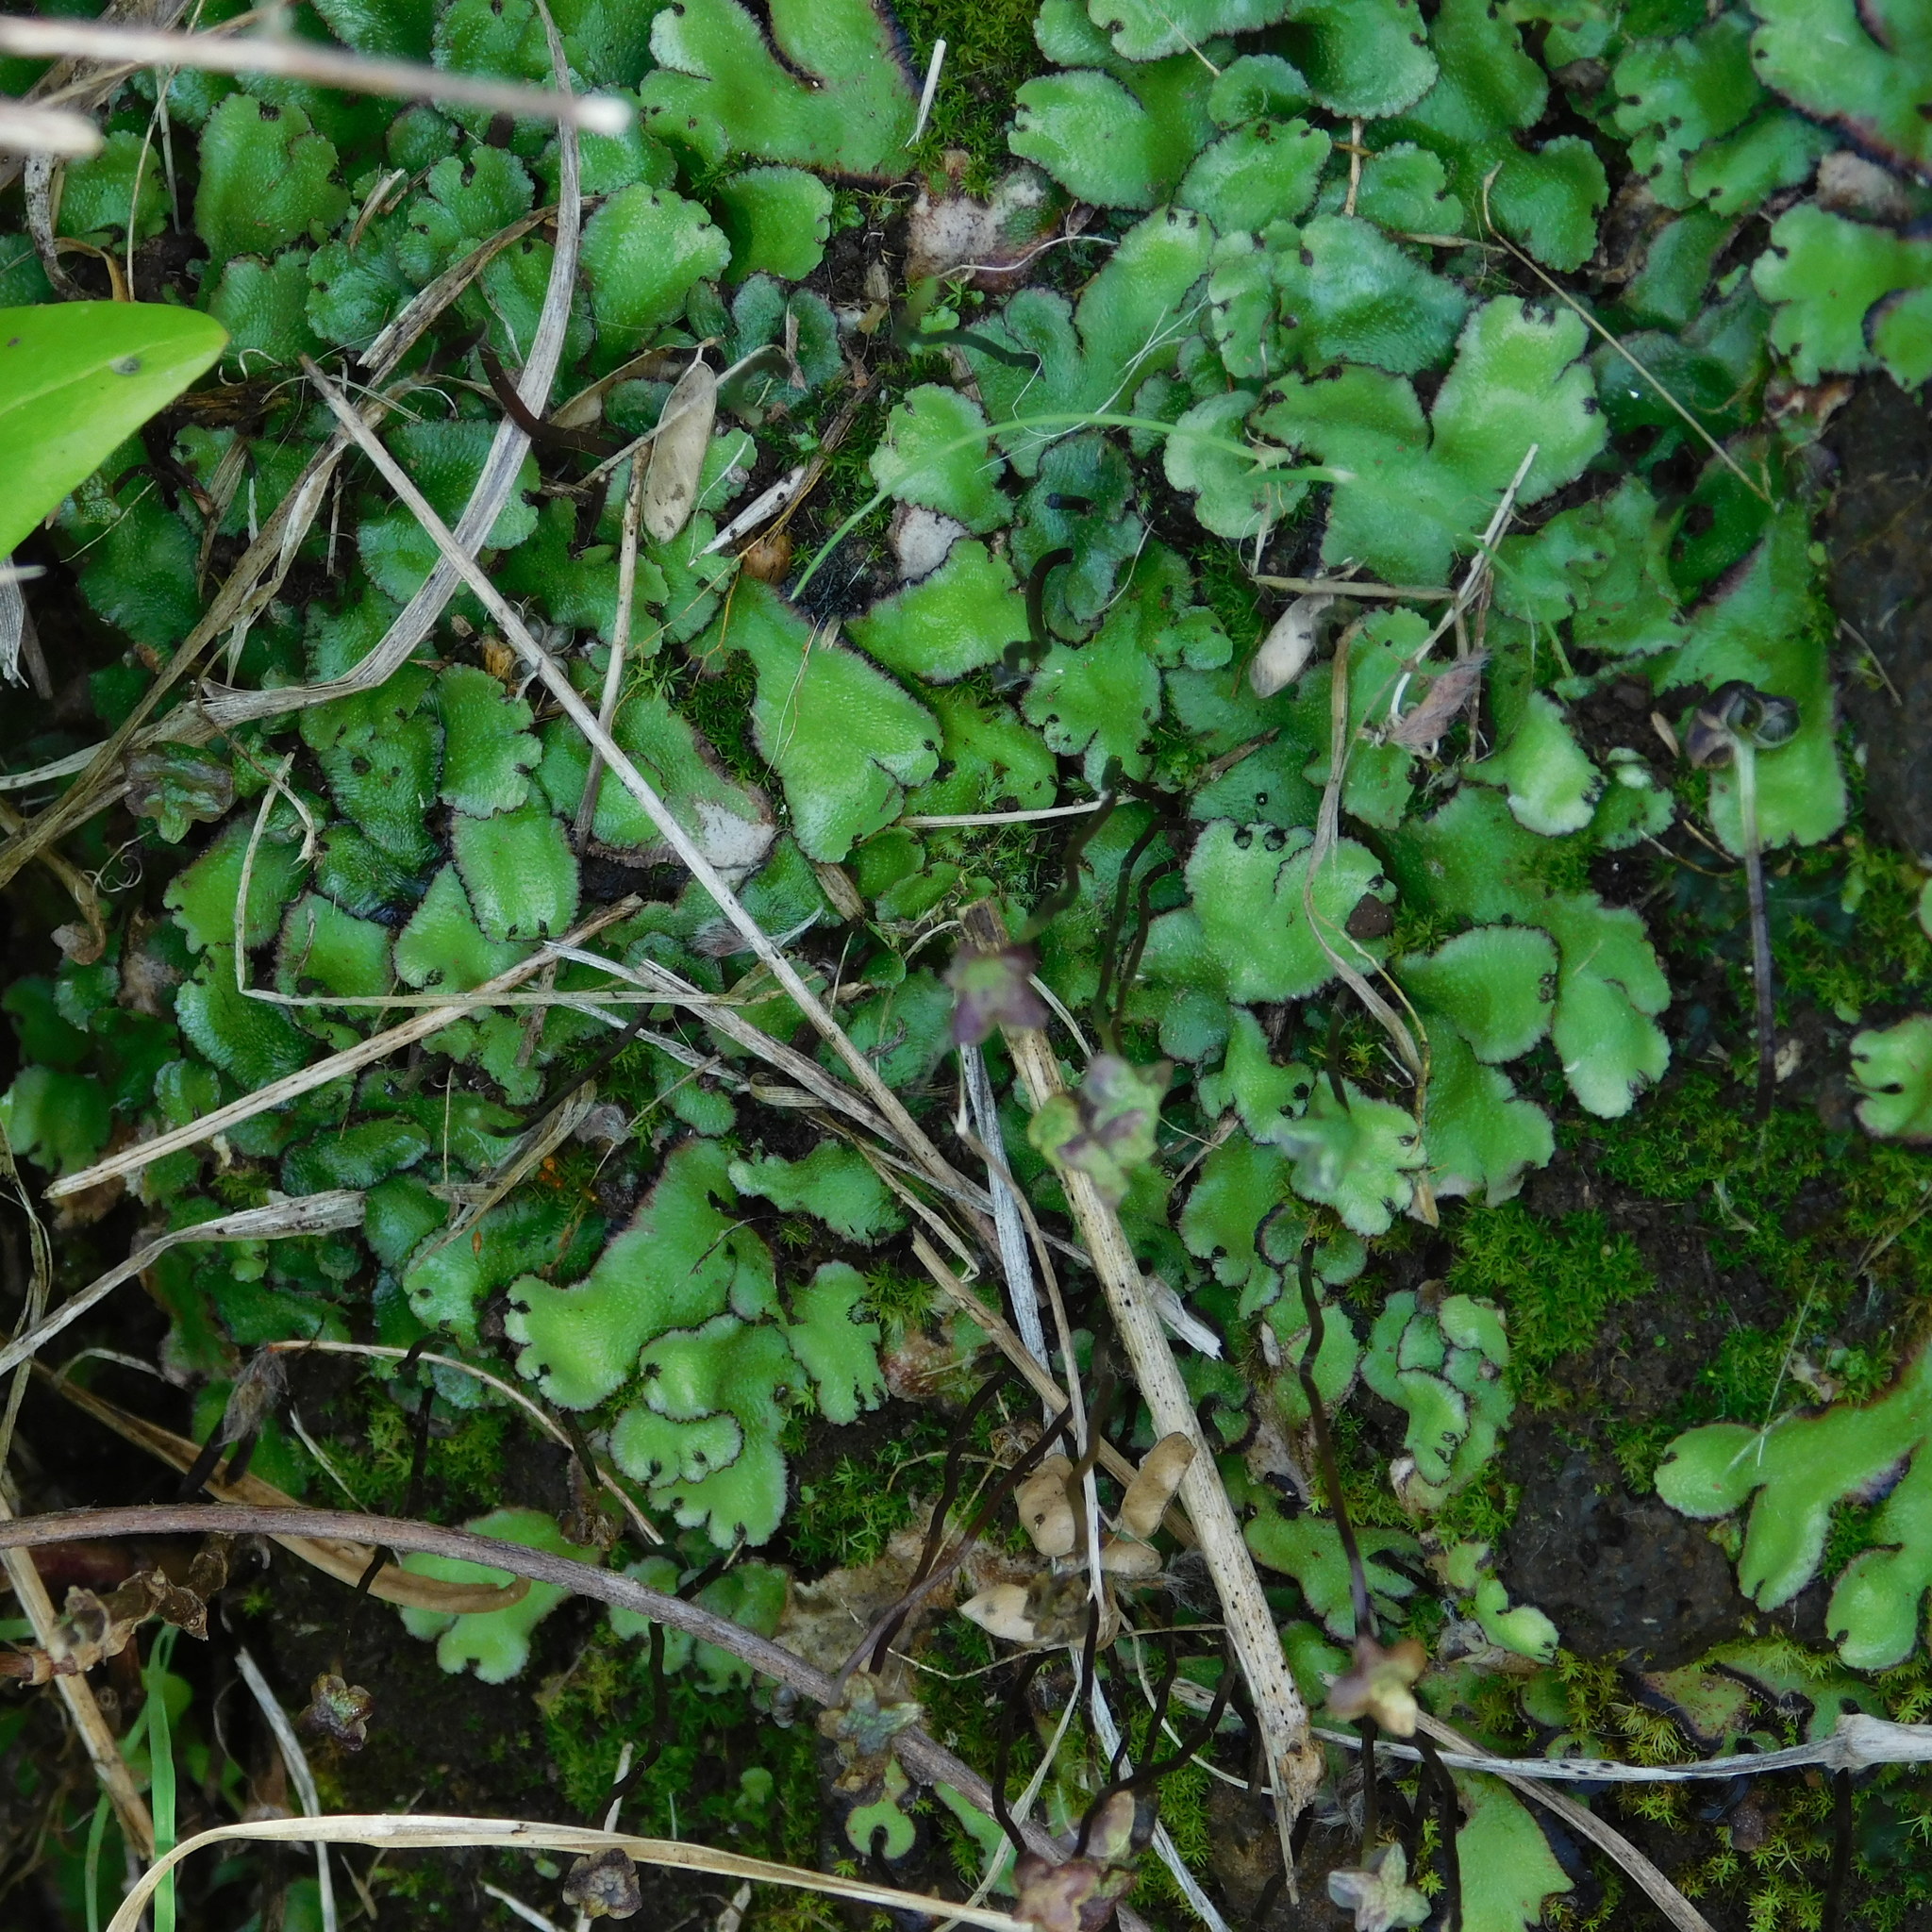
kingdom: Plantae
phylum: Marchantiophyta
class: Marchantiopsida
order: Marchantiales
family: Aytoniaceae
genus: Reboulia
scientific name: Reboulia hemisphaerica
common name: Purple-margined liverwort
